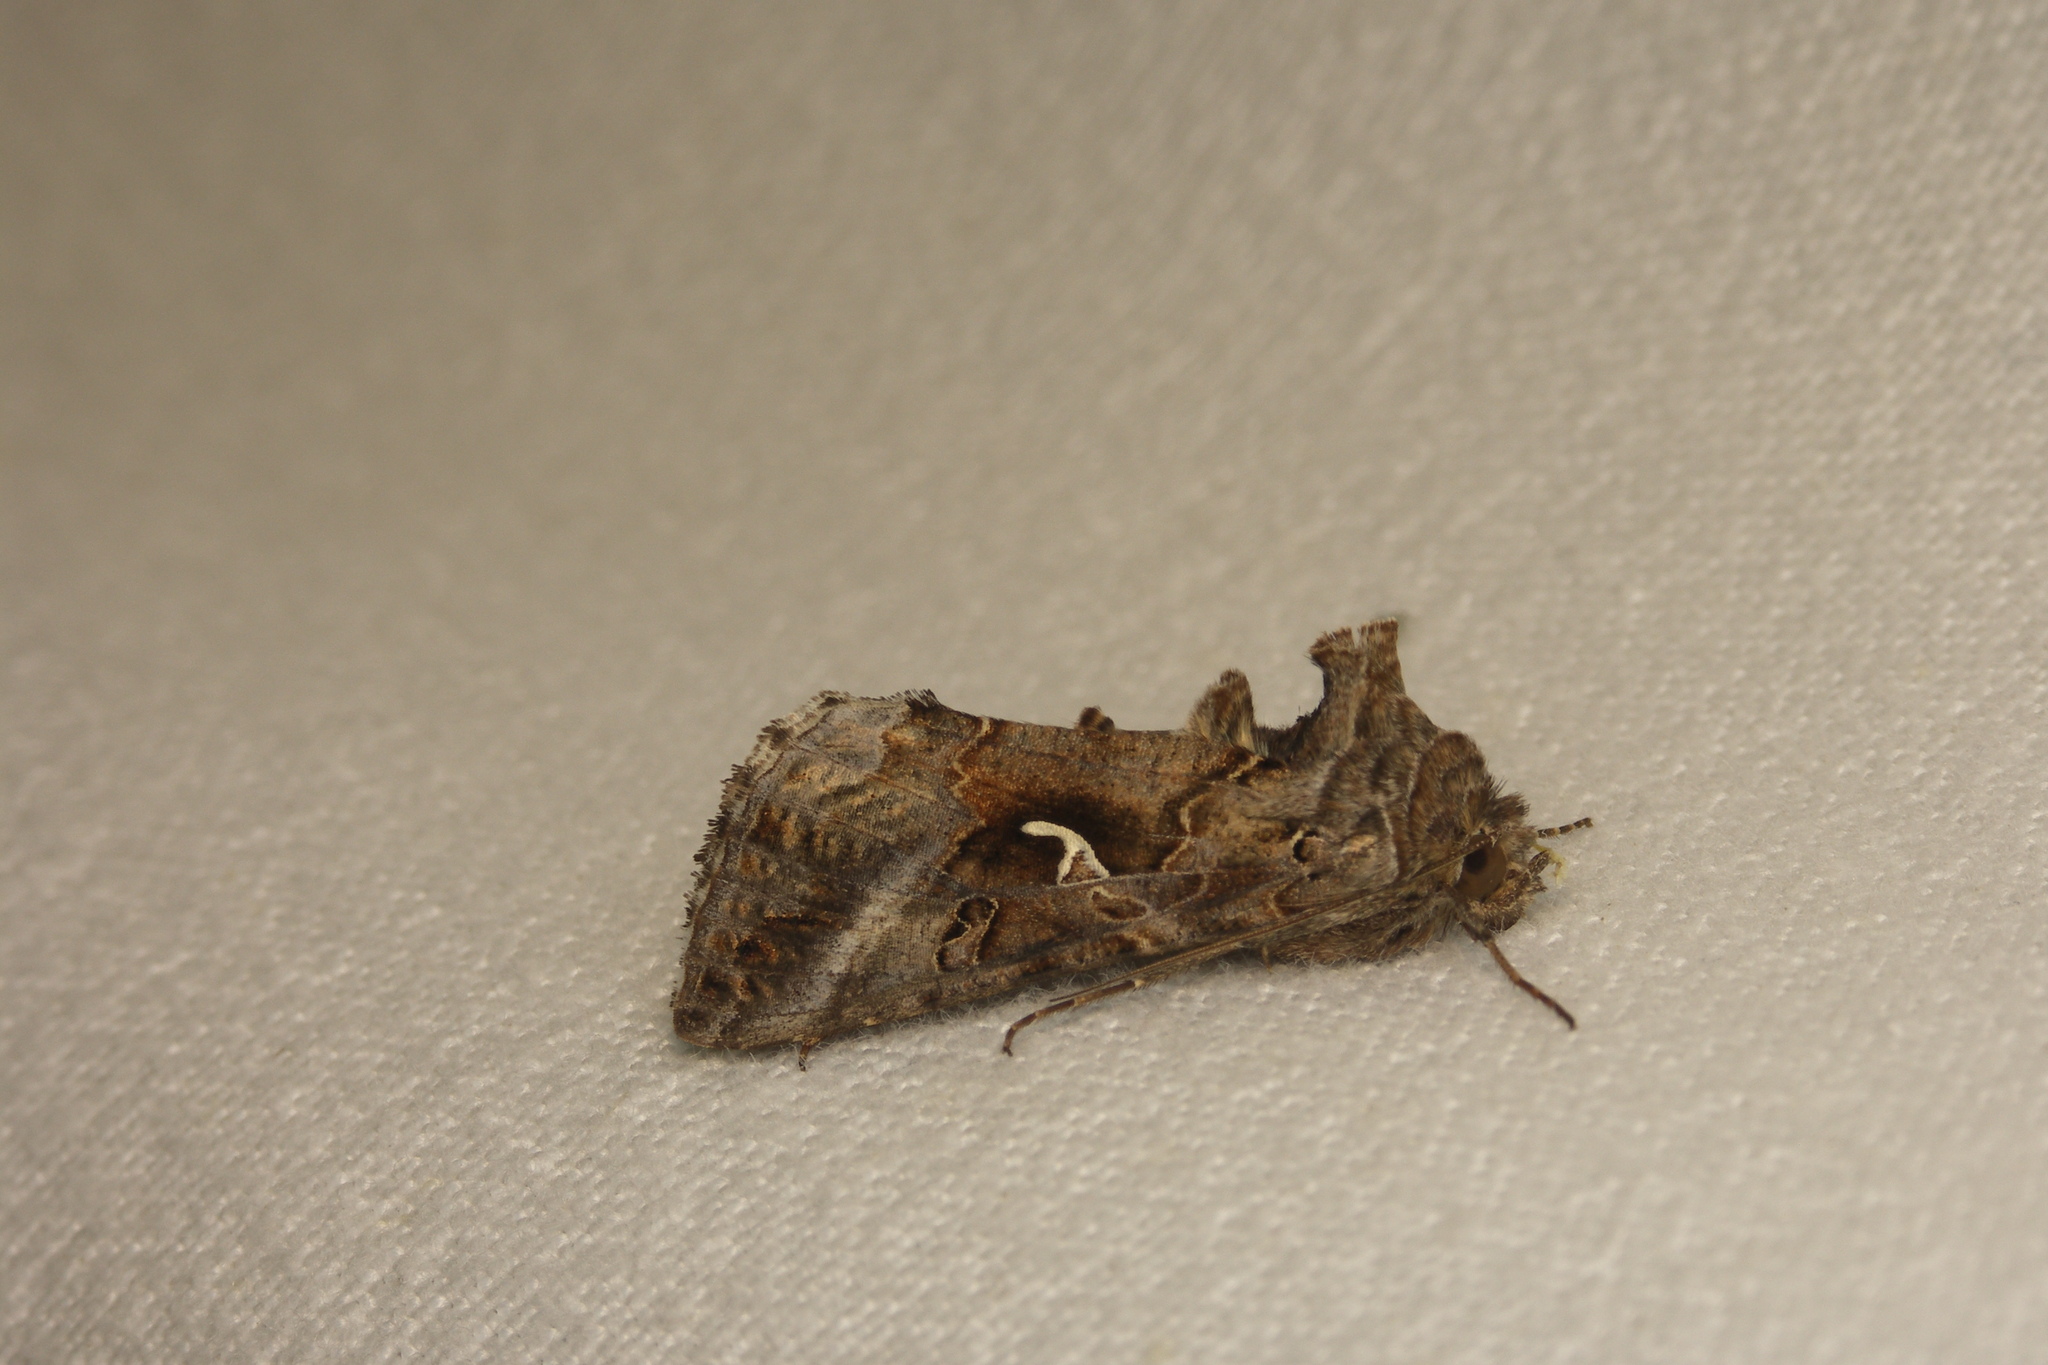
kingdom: Animalia
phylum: Arthropoda
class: Insecta
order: Lepidoptera
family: Noctuidae
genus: Autographa
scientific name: Autographa gamma
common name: Silver y
